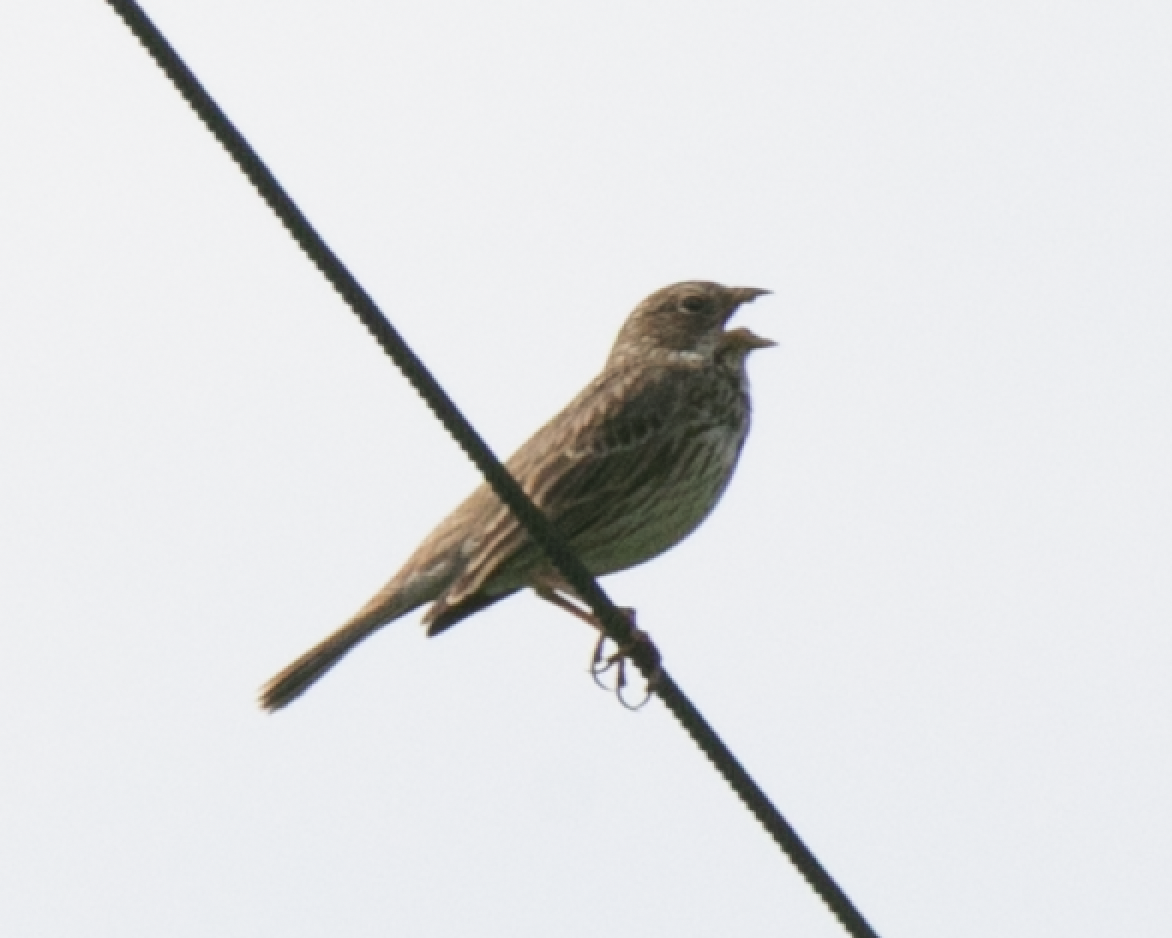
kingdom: Animalia
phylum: Chordata
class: Aves
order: Passeriformes
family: Emberizidae
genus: Emberiza
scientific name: Emberiza calandra
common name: Corn bunting
